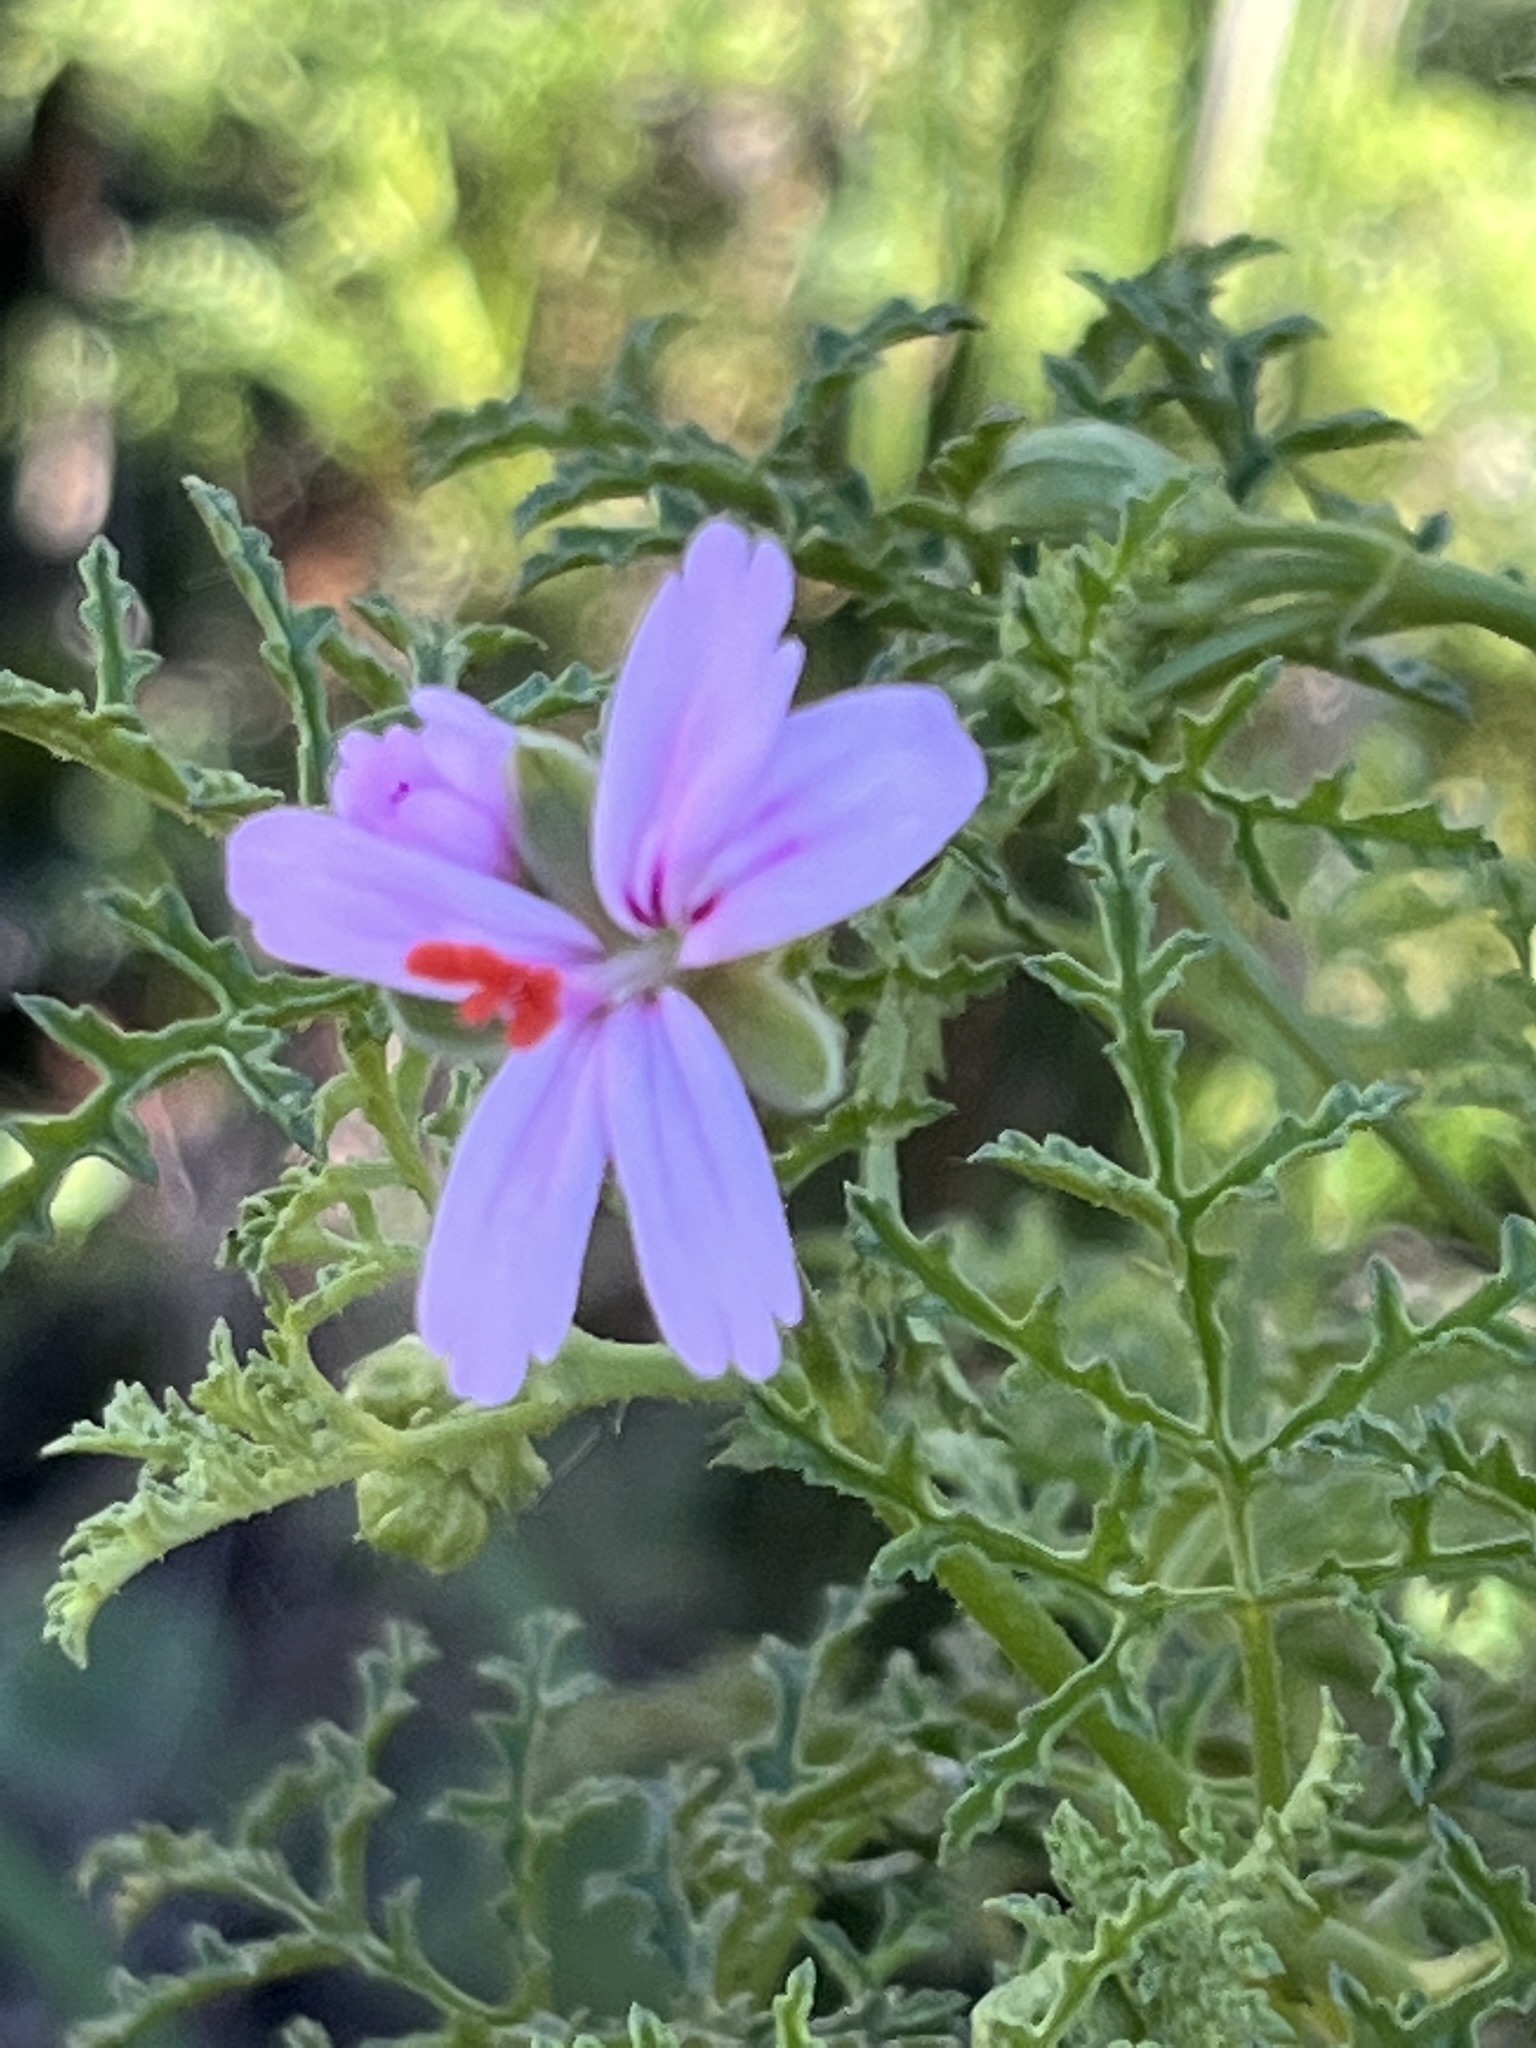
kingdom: Plantae
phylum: Tracheophyta
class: Magnoliopsida
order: Geraniales
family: Geraniaceae
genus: Pelargonium
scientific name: Pelargonium glutinosum
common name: Pheasant-foot geranium
